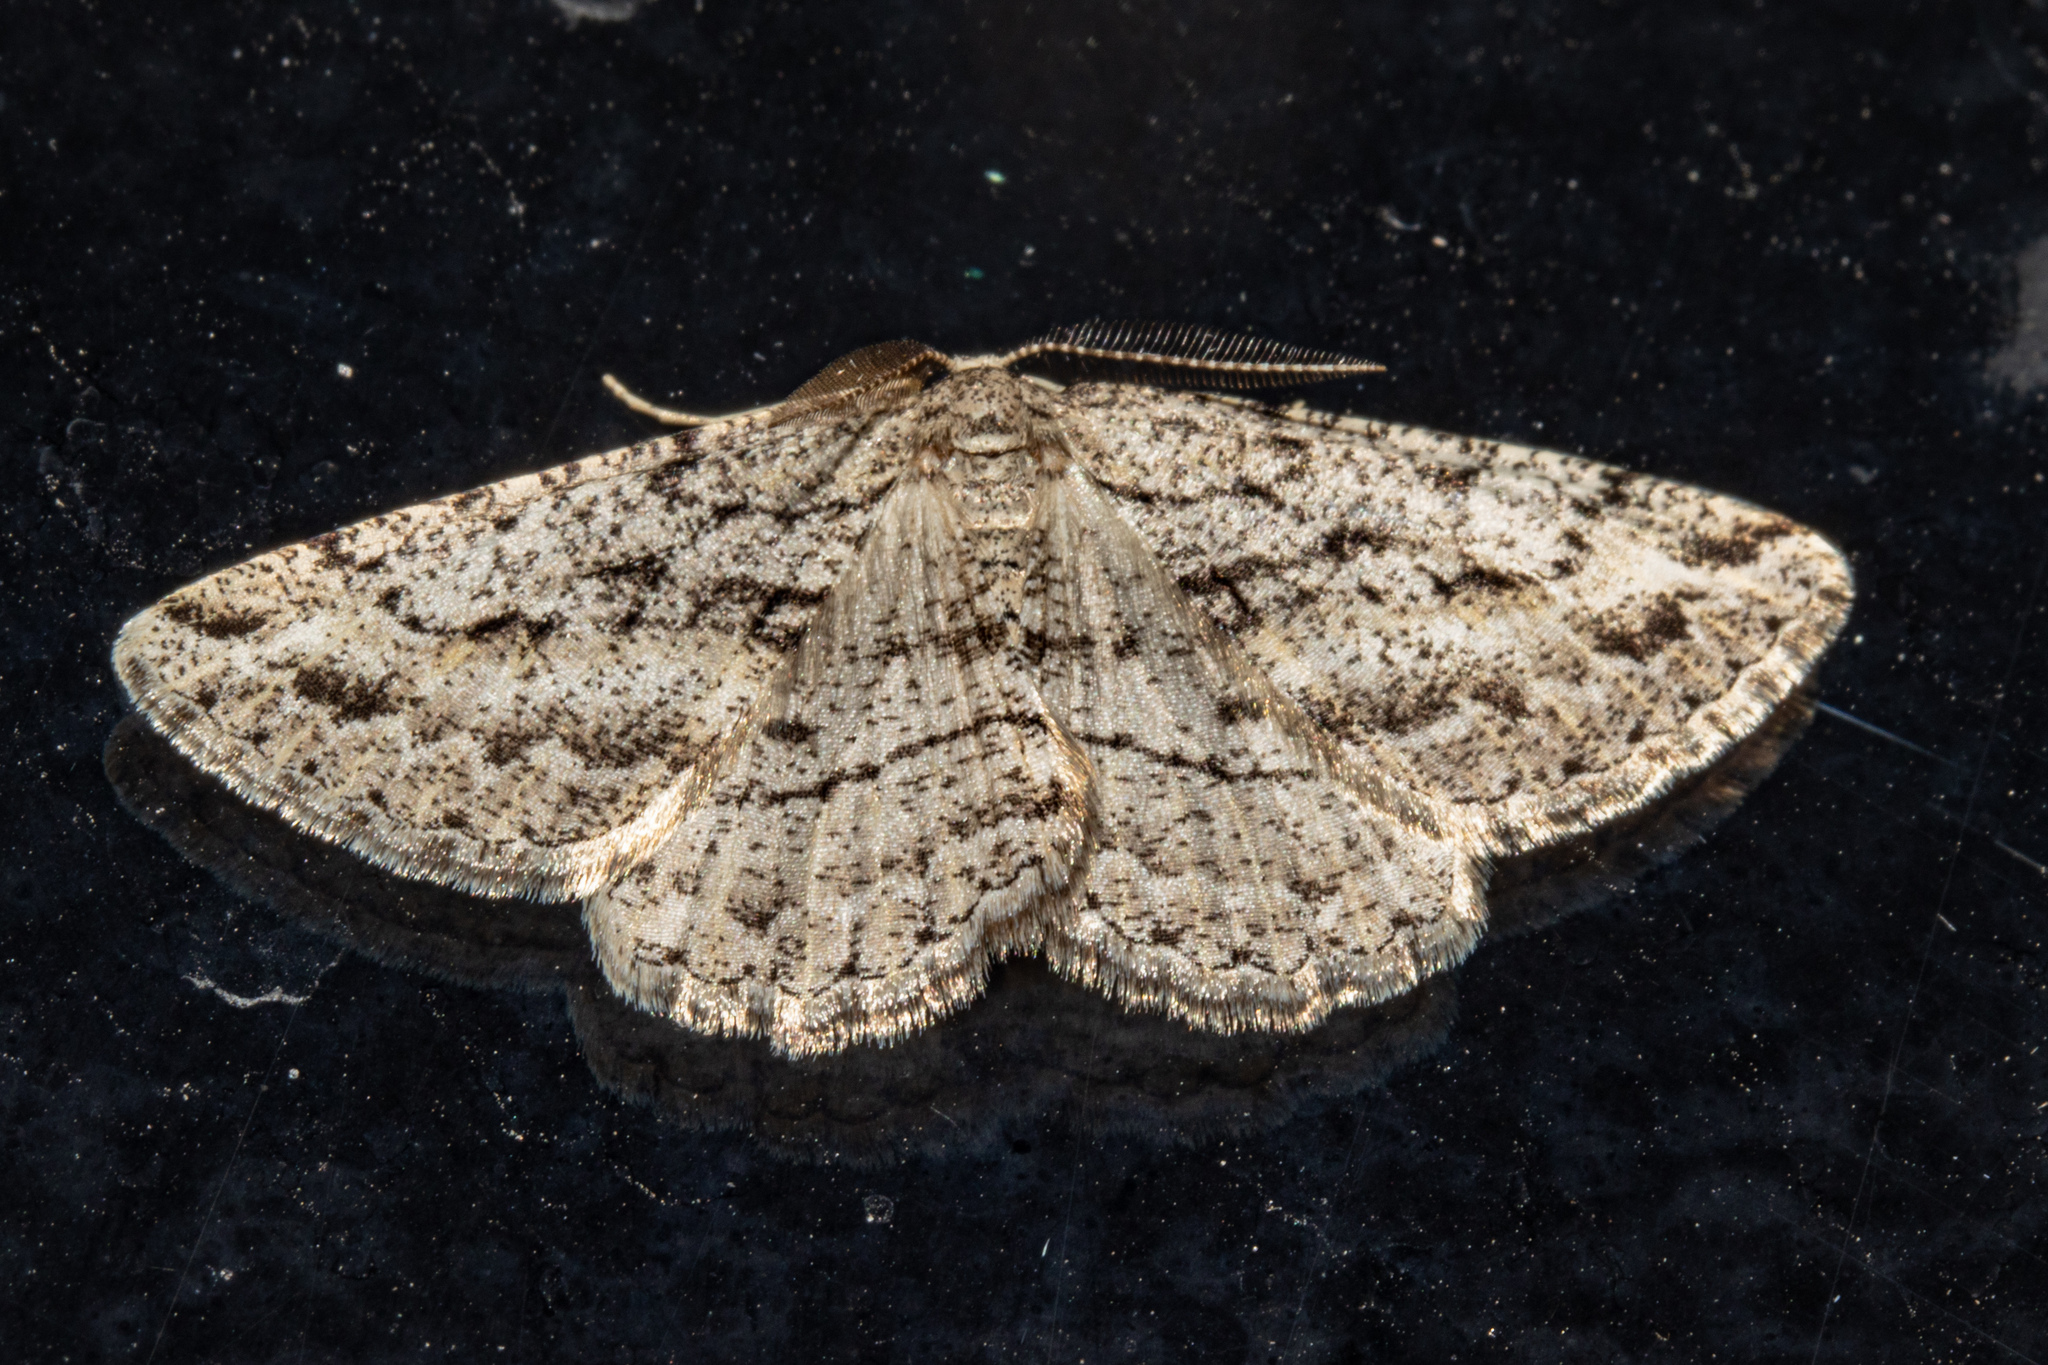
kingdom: Animalia
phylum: Arthropoda
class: Insecta
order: Lepidoptera
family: Geometridae
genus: Zermizinga
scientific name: Zermizinga indocilisaria
